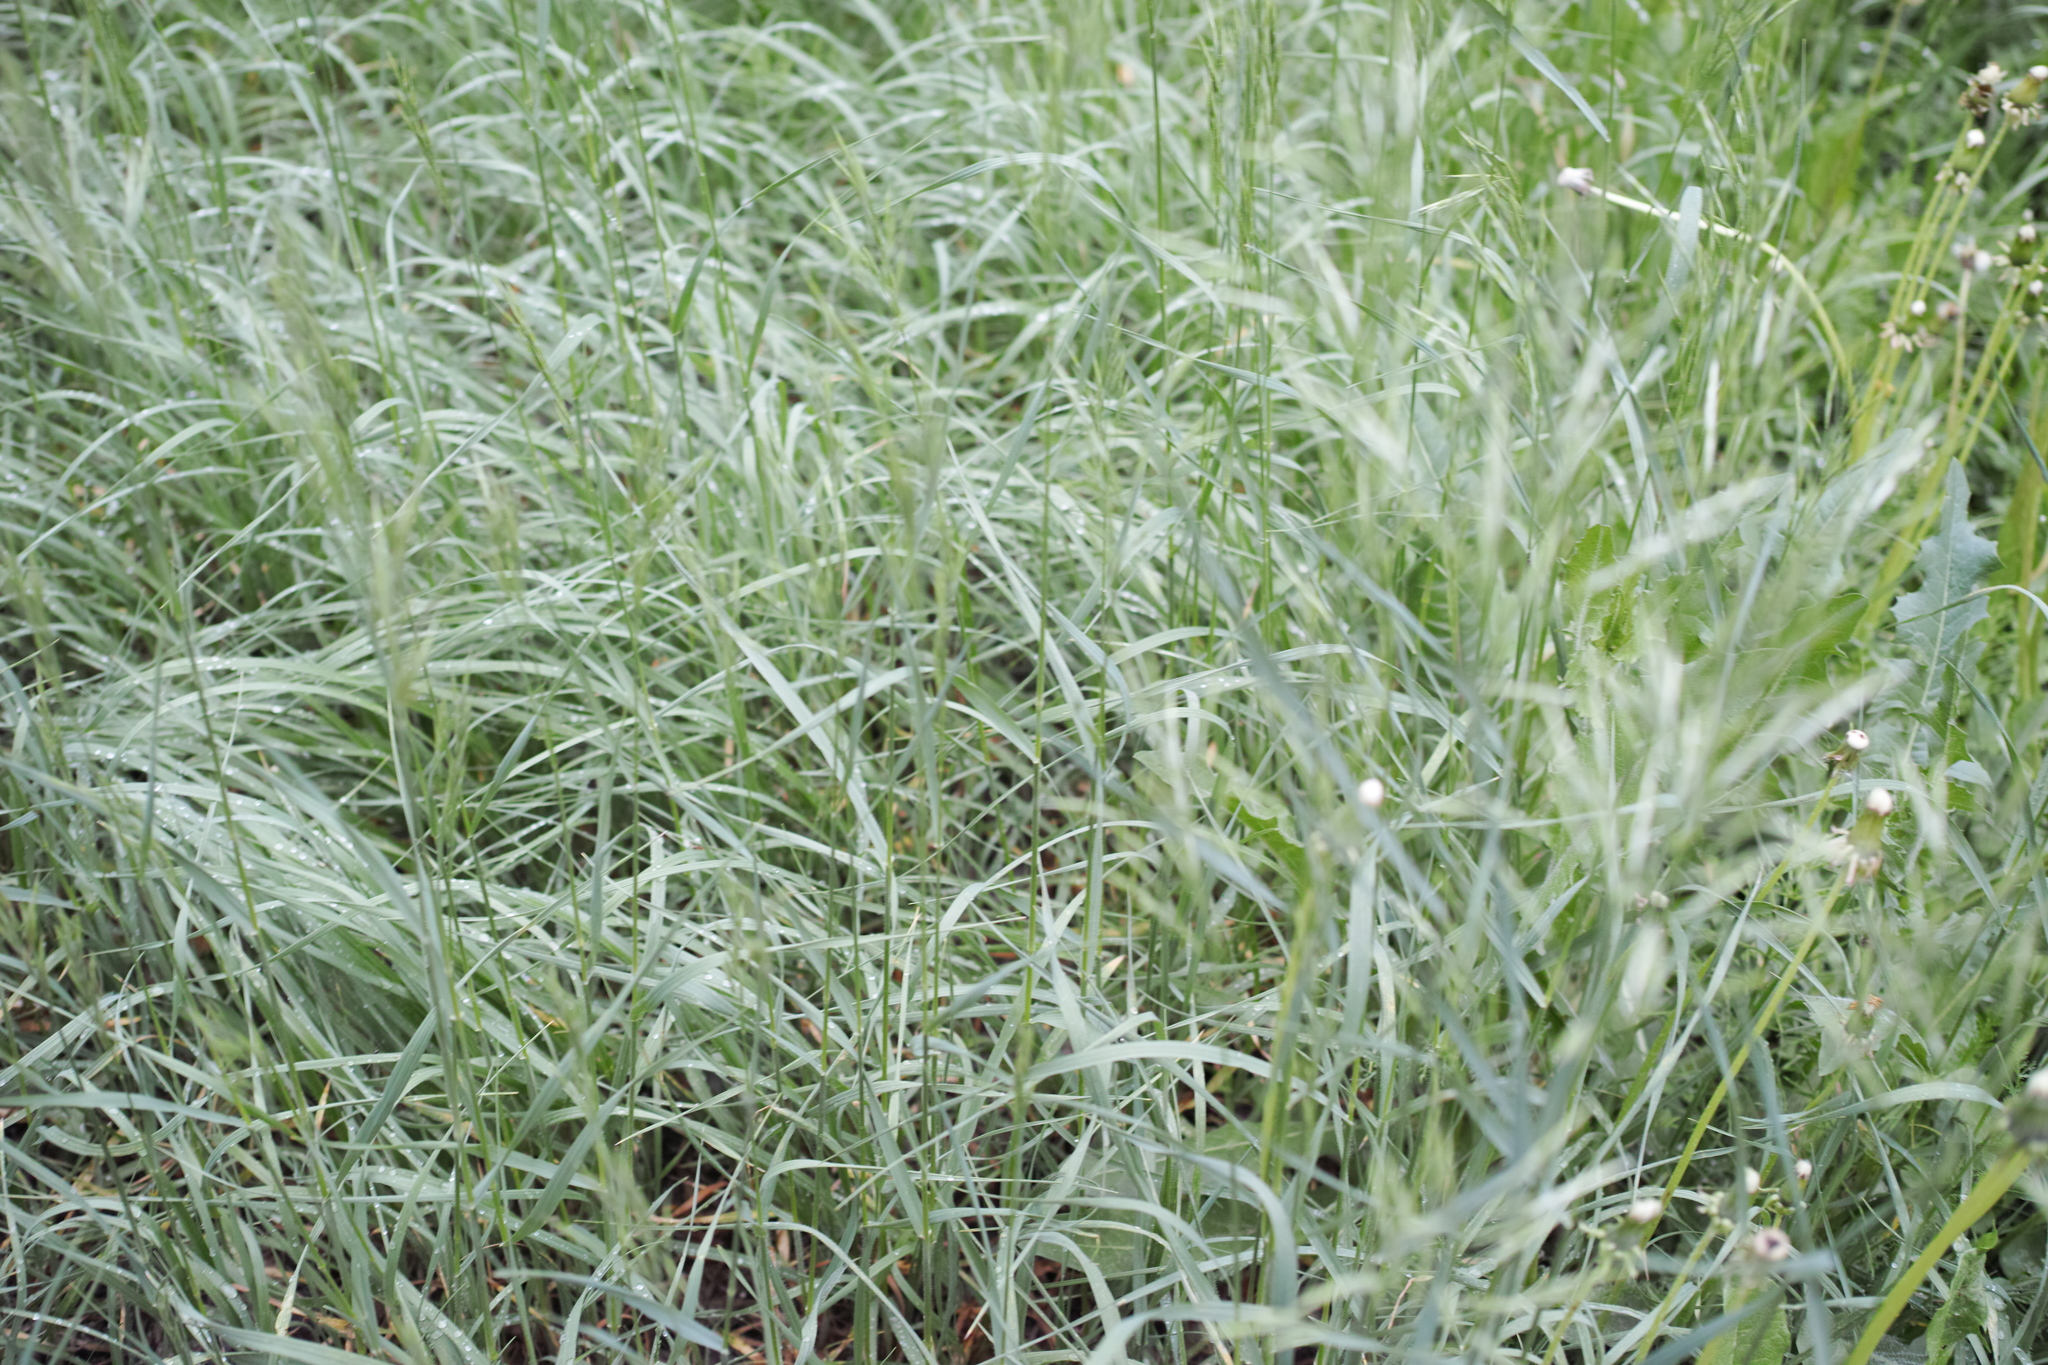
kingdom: Plantae
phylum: Tracheophyta
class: Liliopsida
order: Poales
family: Poaceae
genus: Dactylis
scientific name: Dactylis glomerata
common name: Orchardgrass
